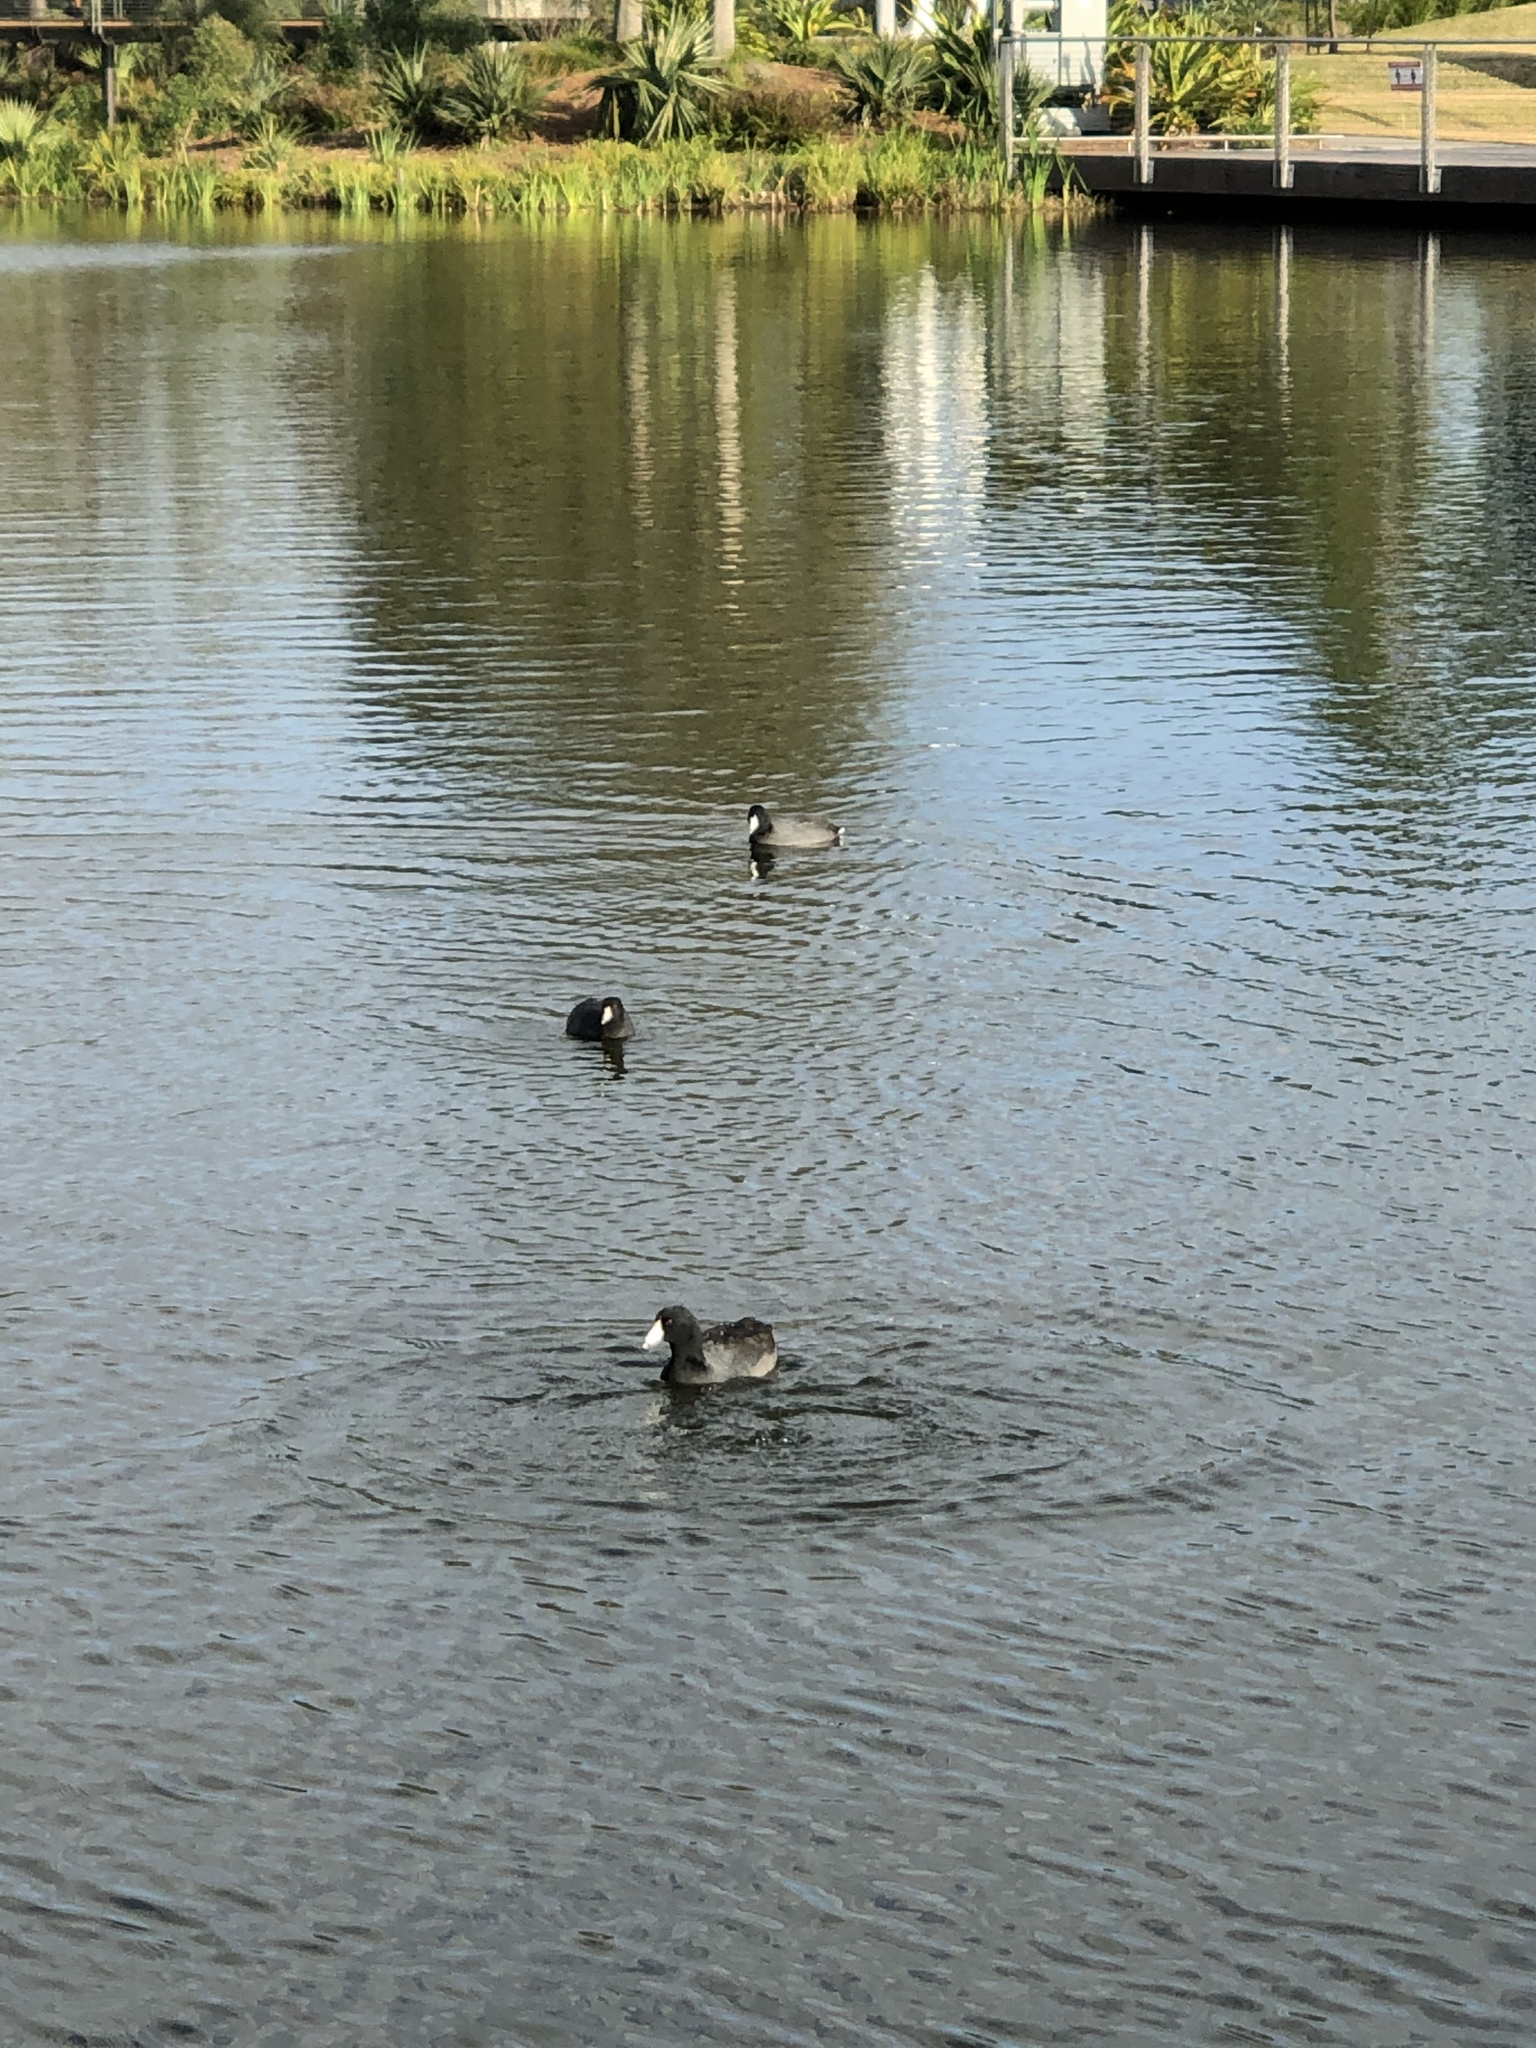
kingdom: Animalia
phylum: Chordata
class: Aves
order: Gruiformes
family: Rallidae
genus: Fulica
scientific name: Fulica americana
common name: American coot
